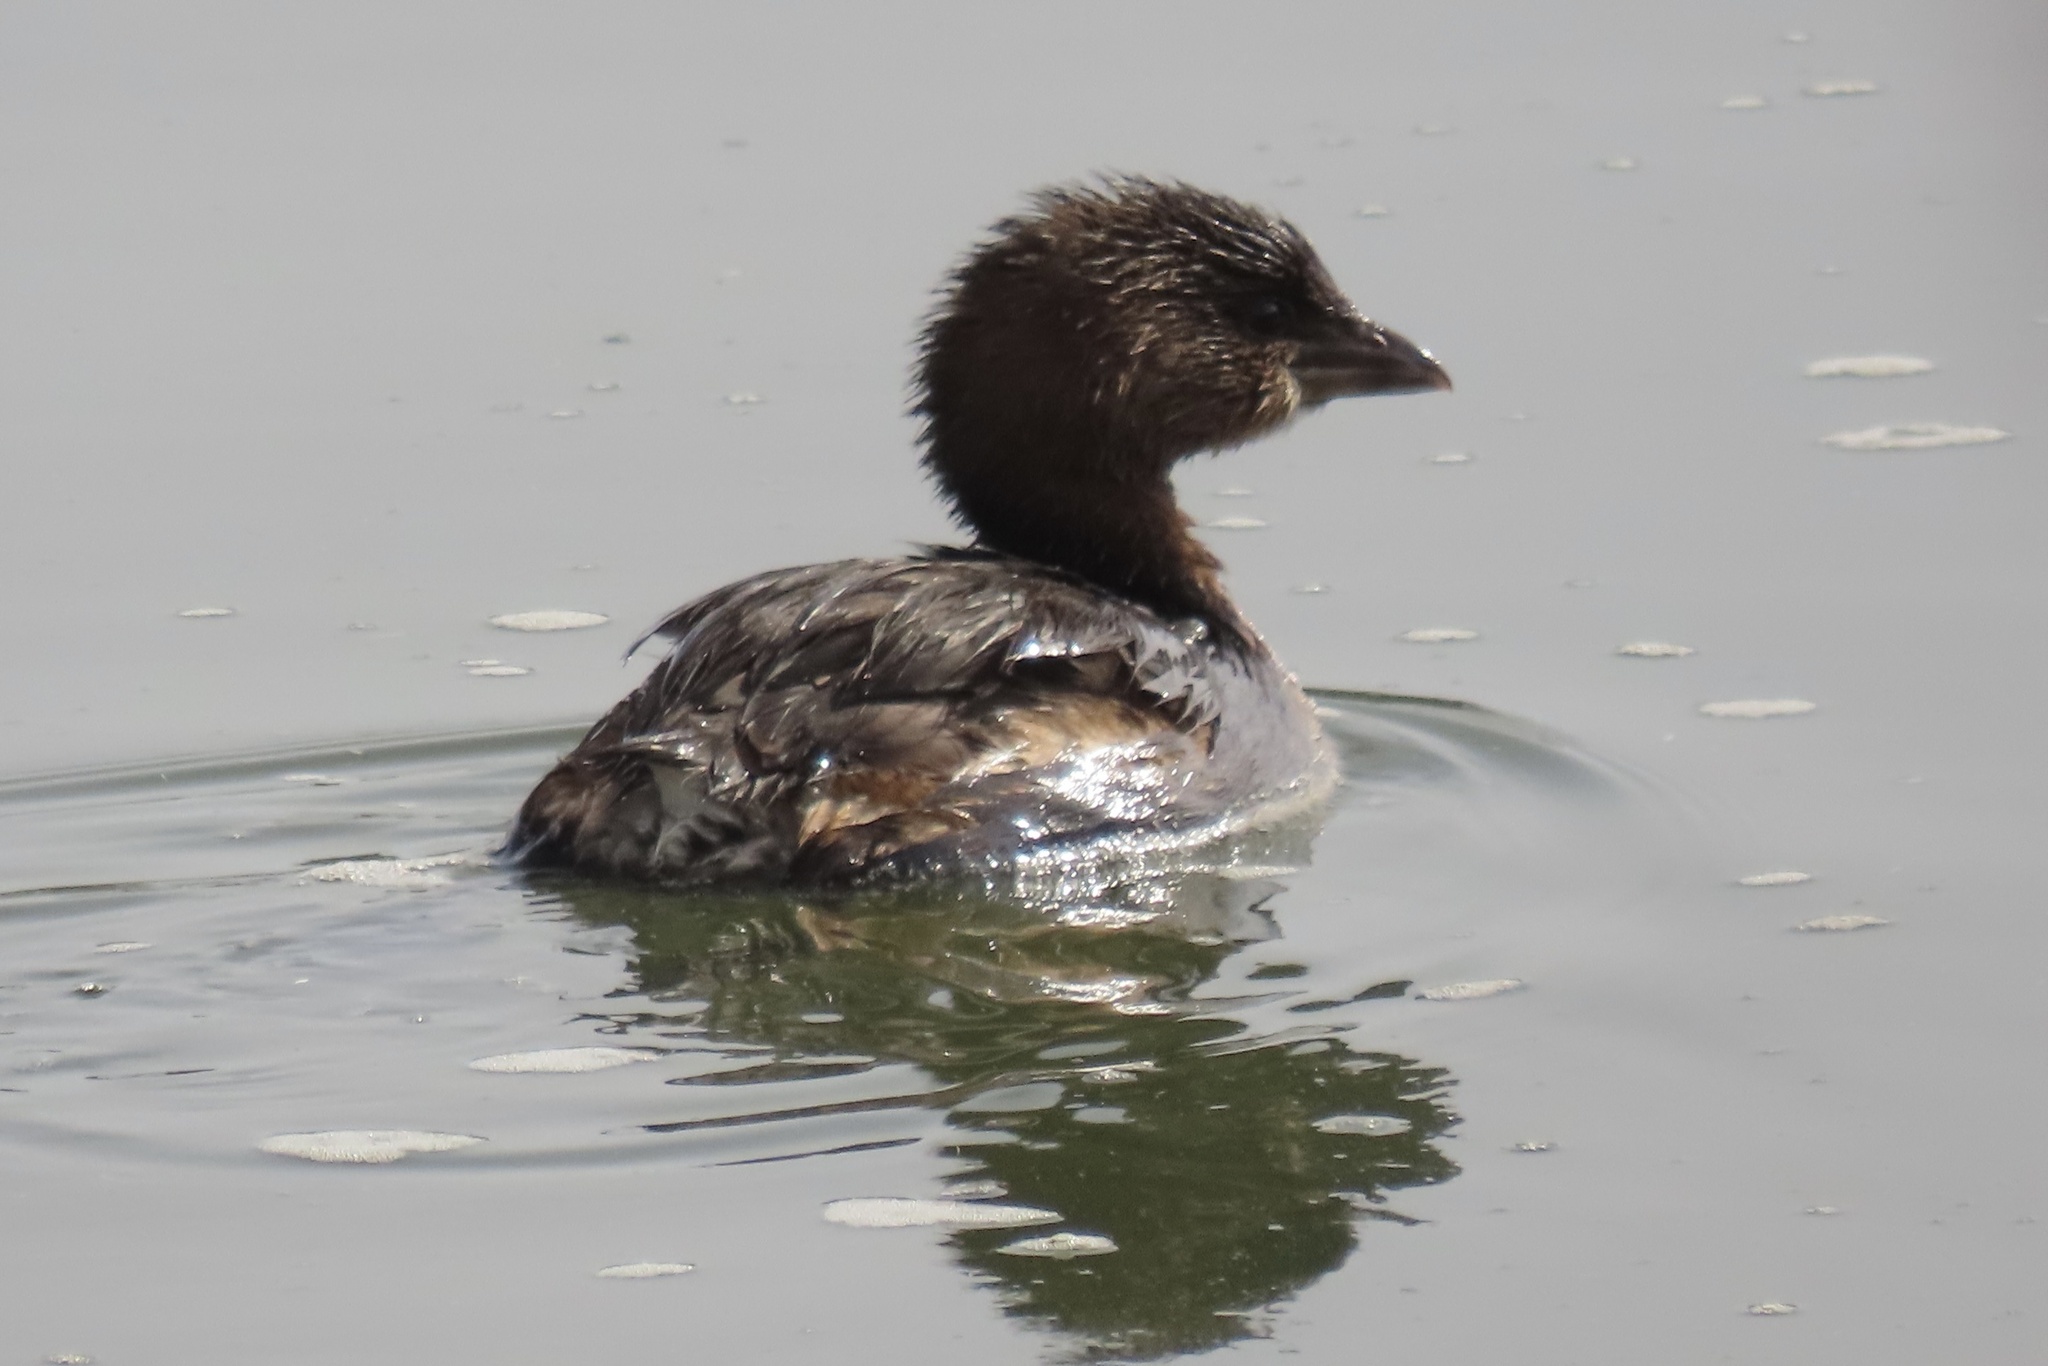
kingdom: Animalia
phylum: Chordata
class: Aves
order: Podicipediformes
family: Podicipedidae
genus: Podilymbus
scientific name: Podilymbus podiceps
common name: Pied-billed grebe
